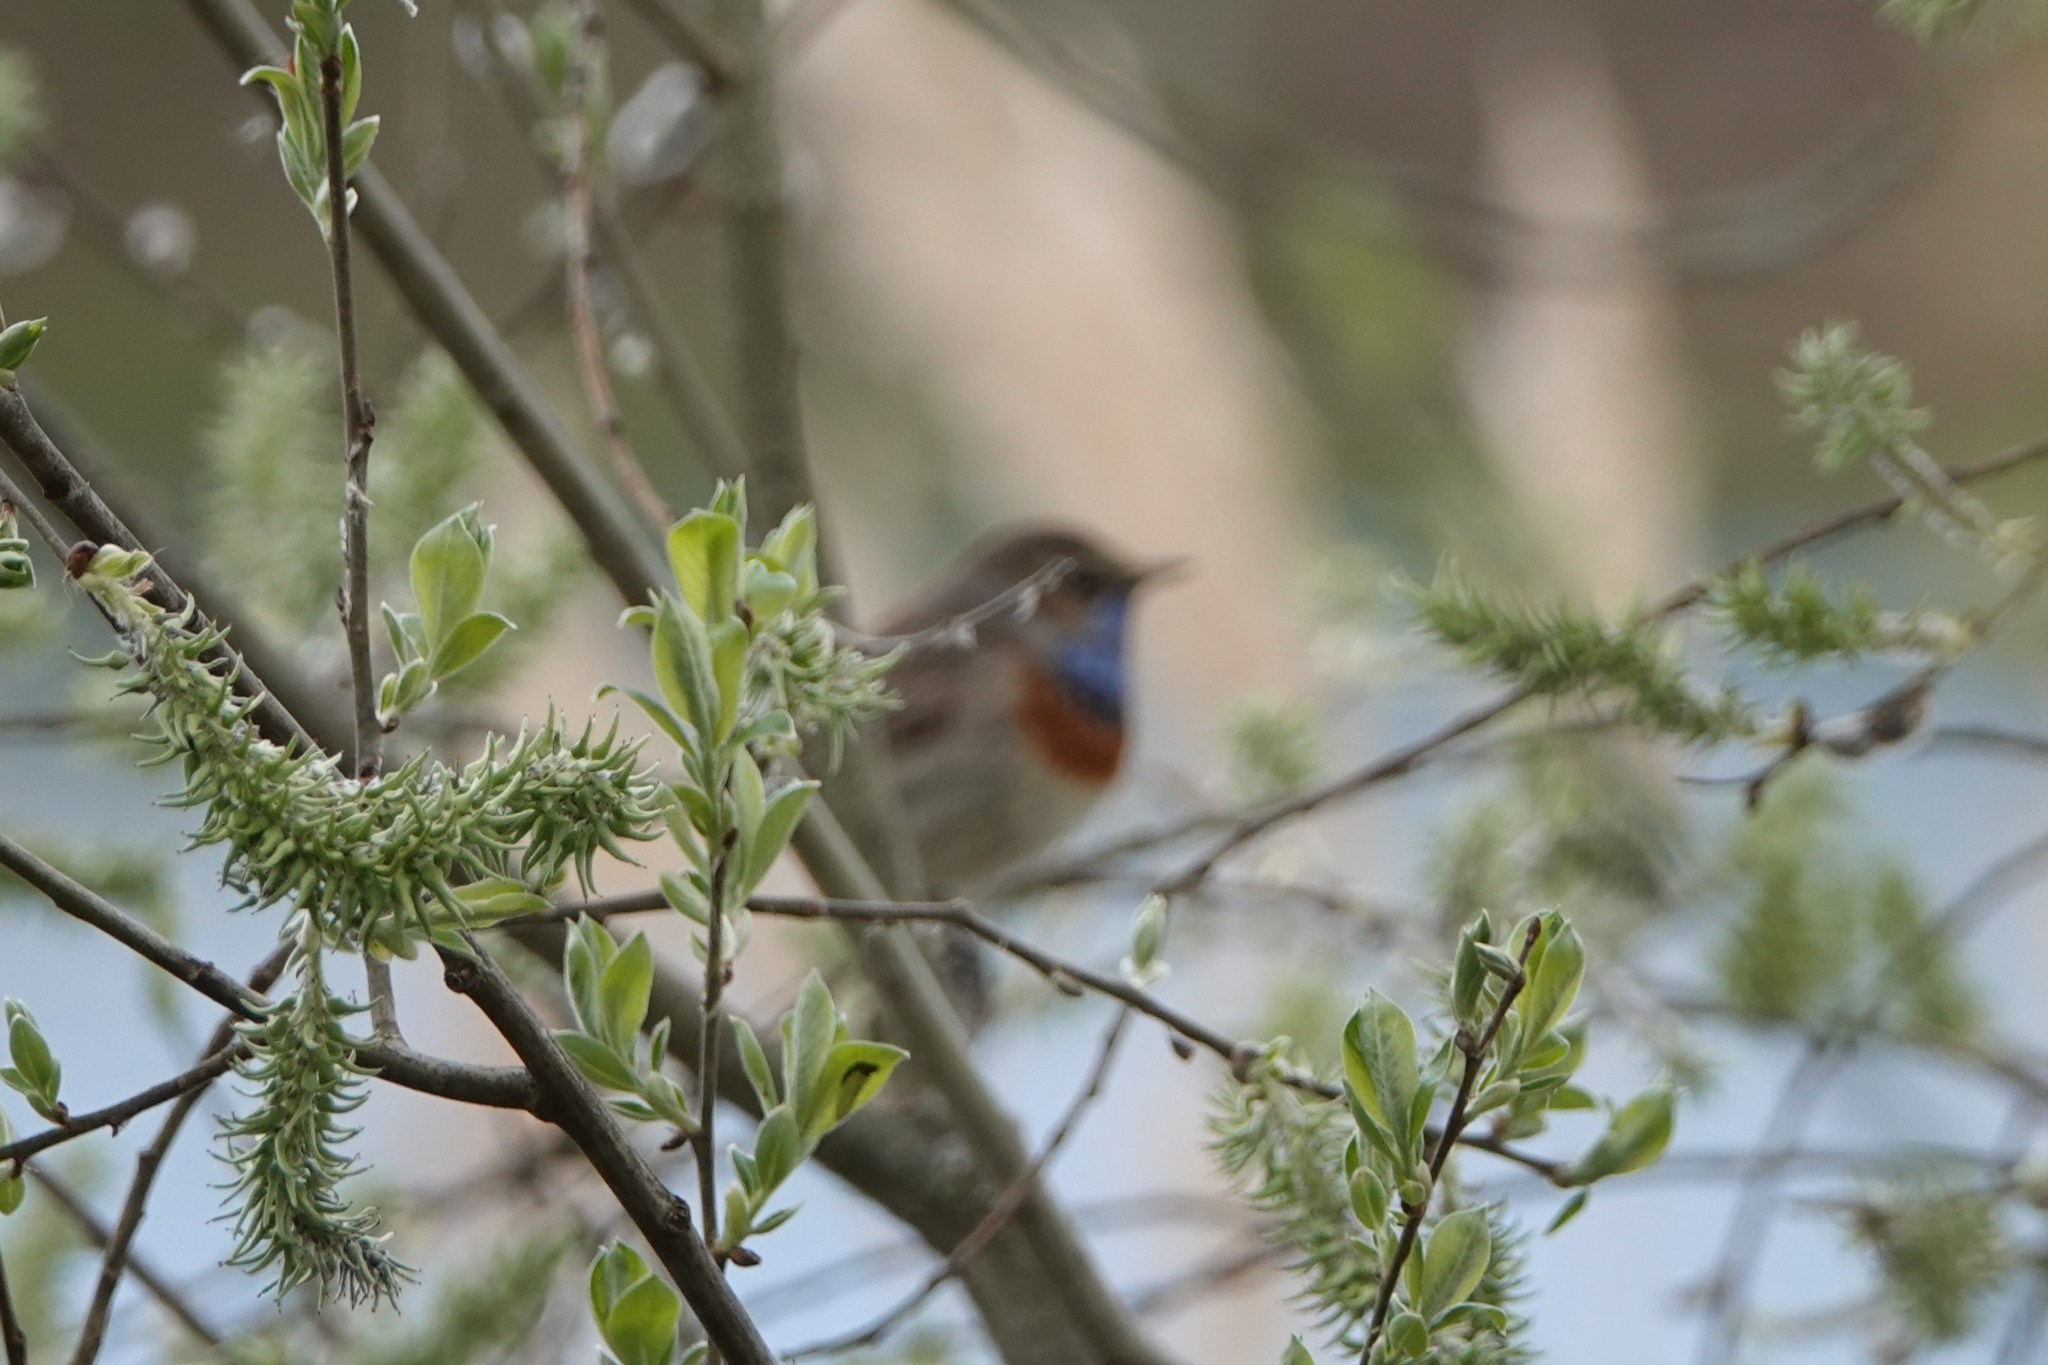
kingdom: Animalia
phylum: Chordata
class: Aves
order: Passeriformes
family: Muscicapidae
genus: Luscinia
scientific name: Luscinia svecica
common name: Bluethroat
